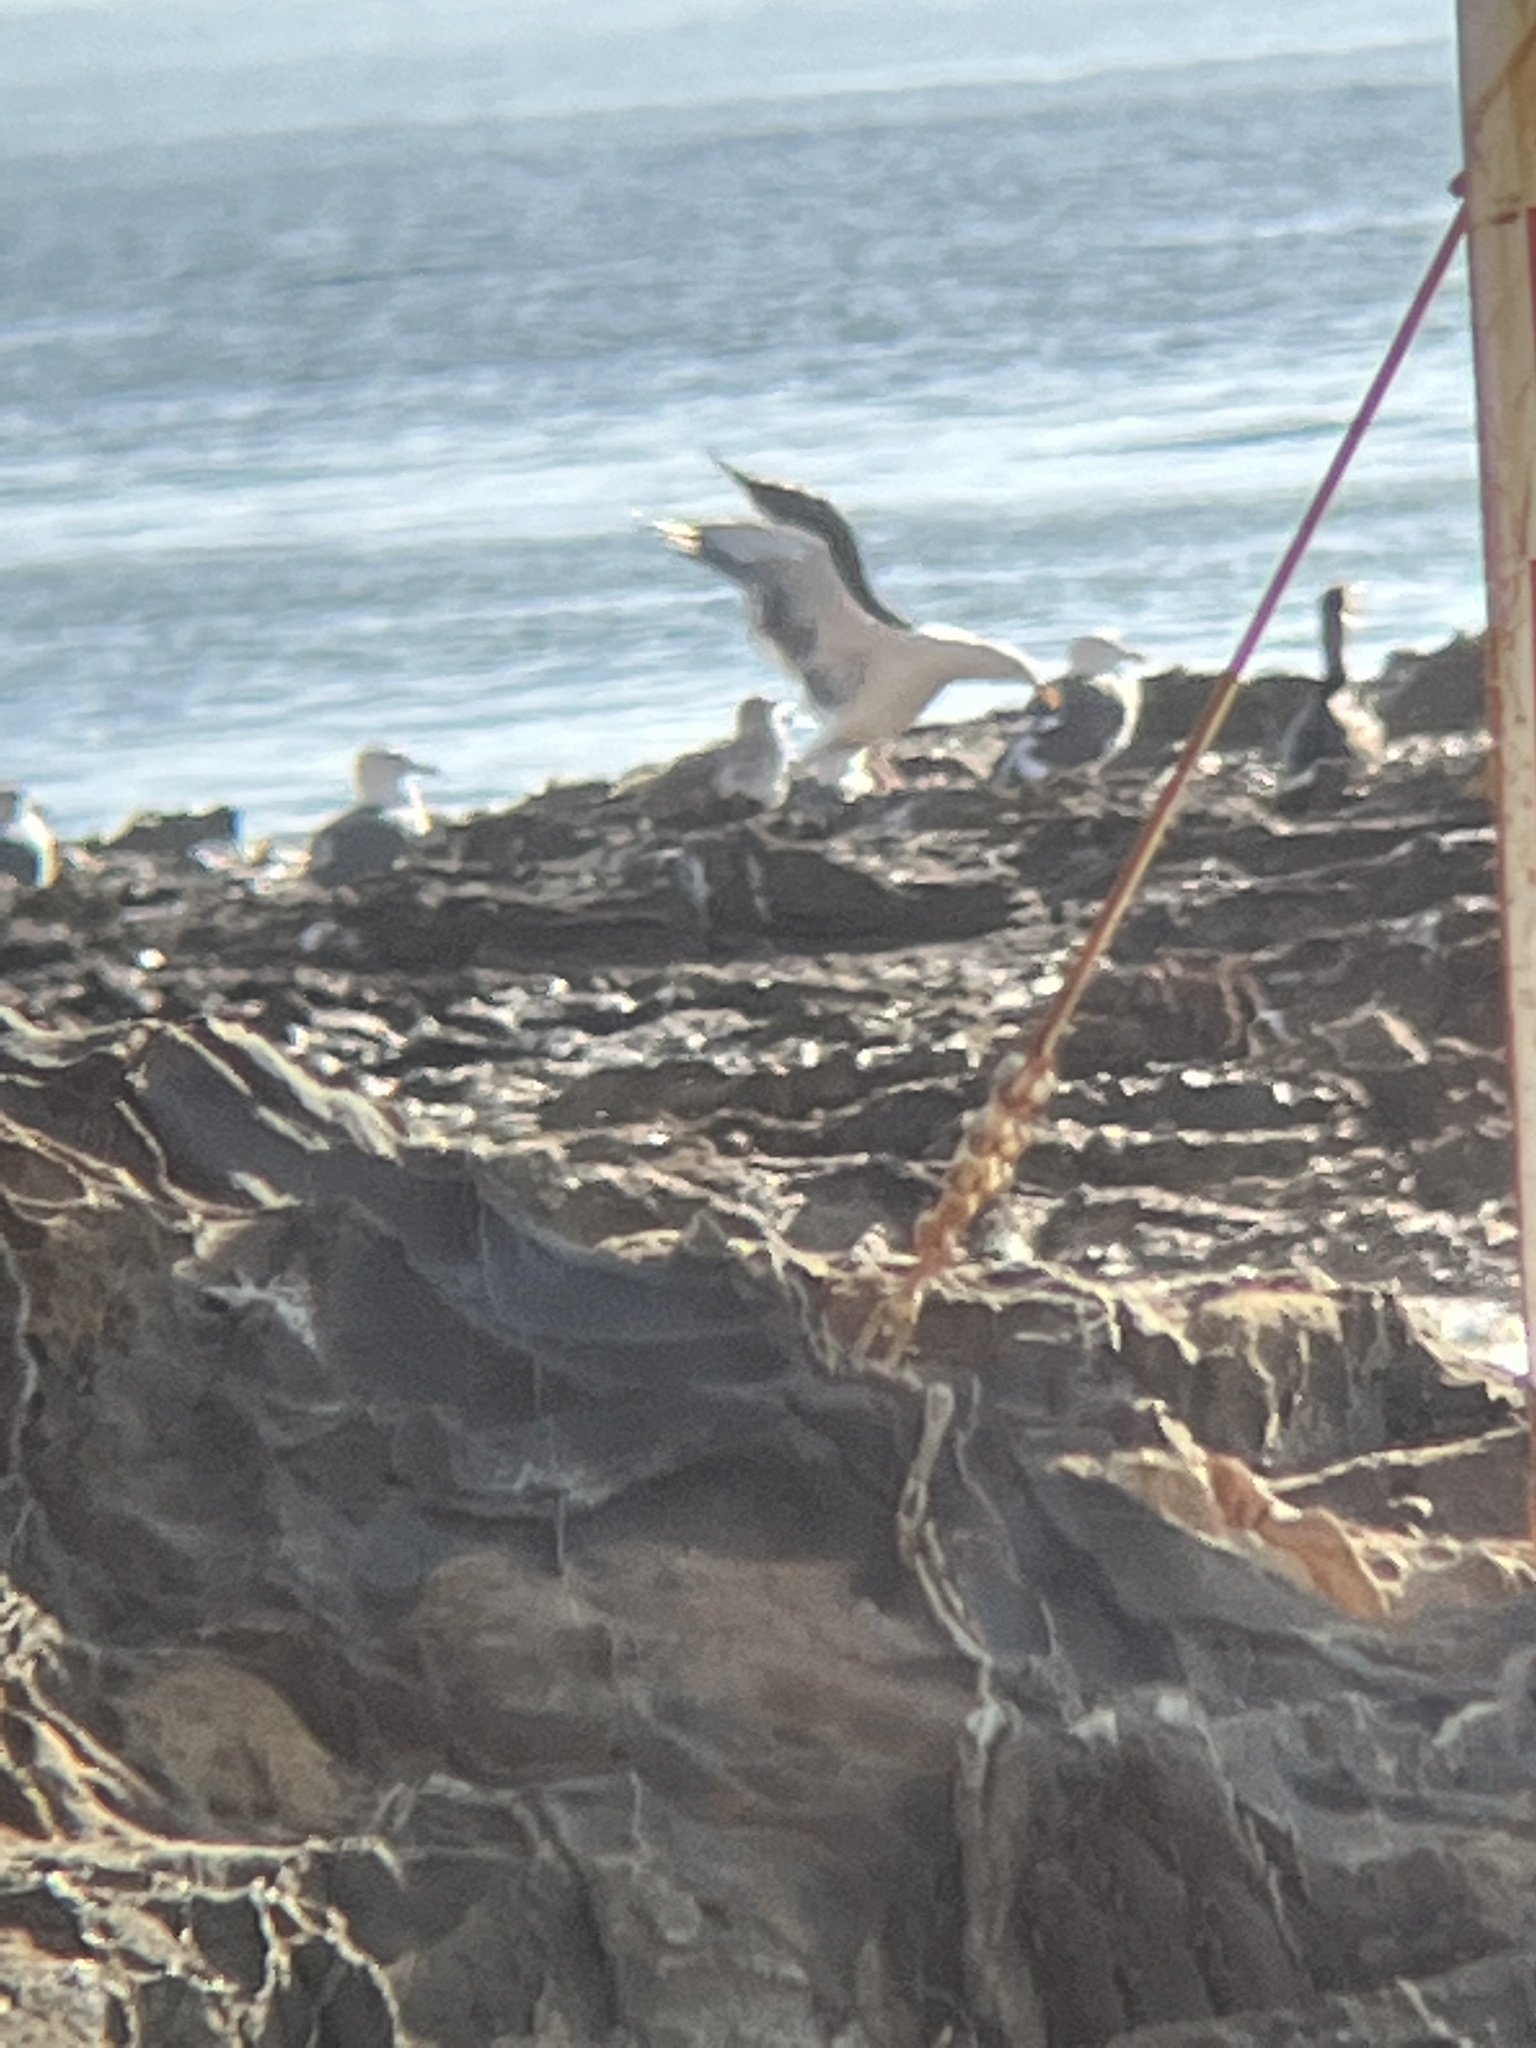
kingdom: Animalia
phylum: Chordata
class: Aves
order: Charadriiformes
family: Laridae
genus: Larus
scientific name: Larus occidentalis
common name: Western gull
